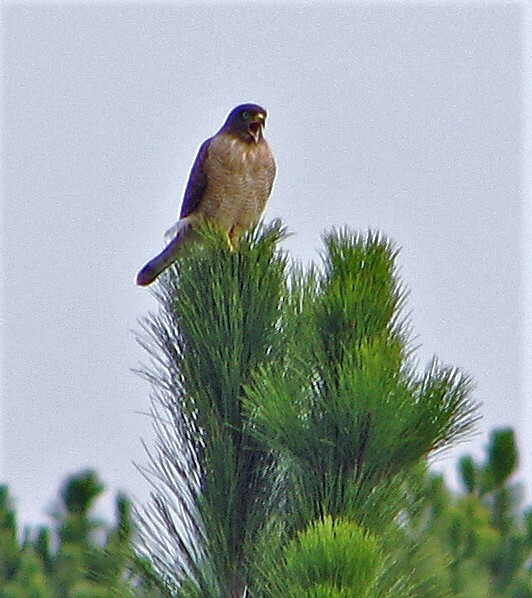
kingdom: Animalia
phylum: Chordata
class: Aves
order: Accipitriformes
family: Accipitridae
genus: Rupornis
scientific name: Rupornis magnirostris
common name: Roadside hawk
